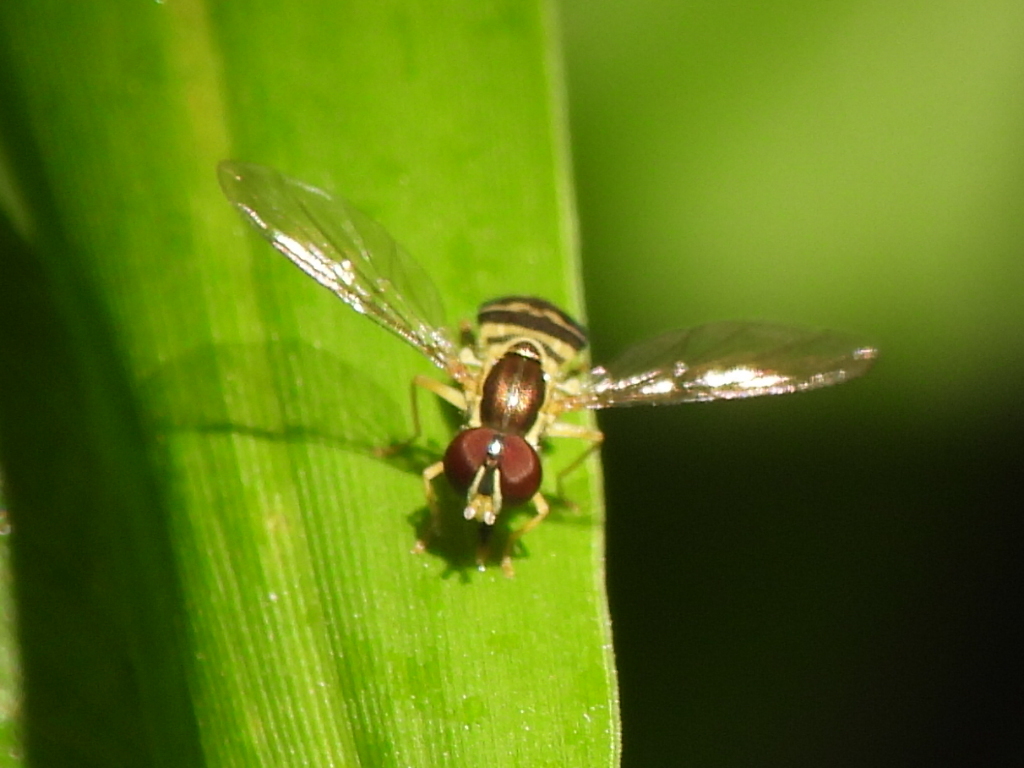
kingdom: Animalia
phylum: Arthropoda
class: Insecta
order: Diptera
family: Syrphidae
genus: Toxomerus
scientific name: Toxomerus geminatus
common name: Eastern calligrapher
